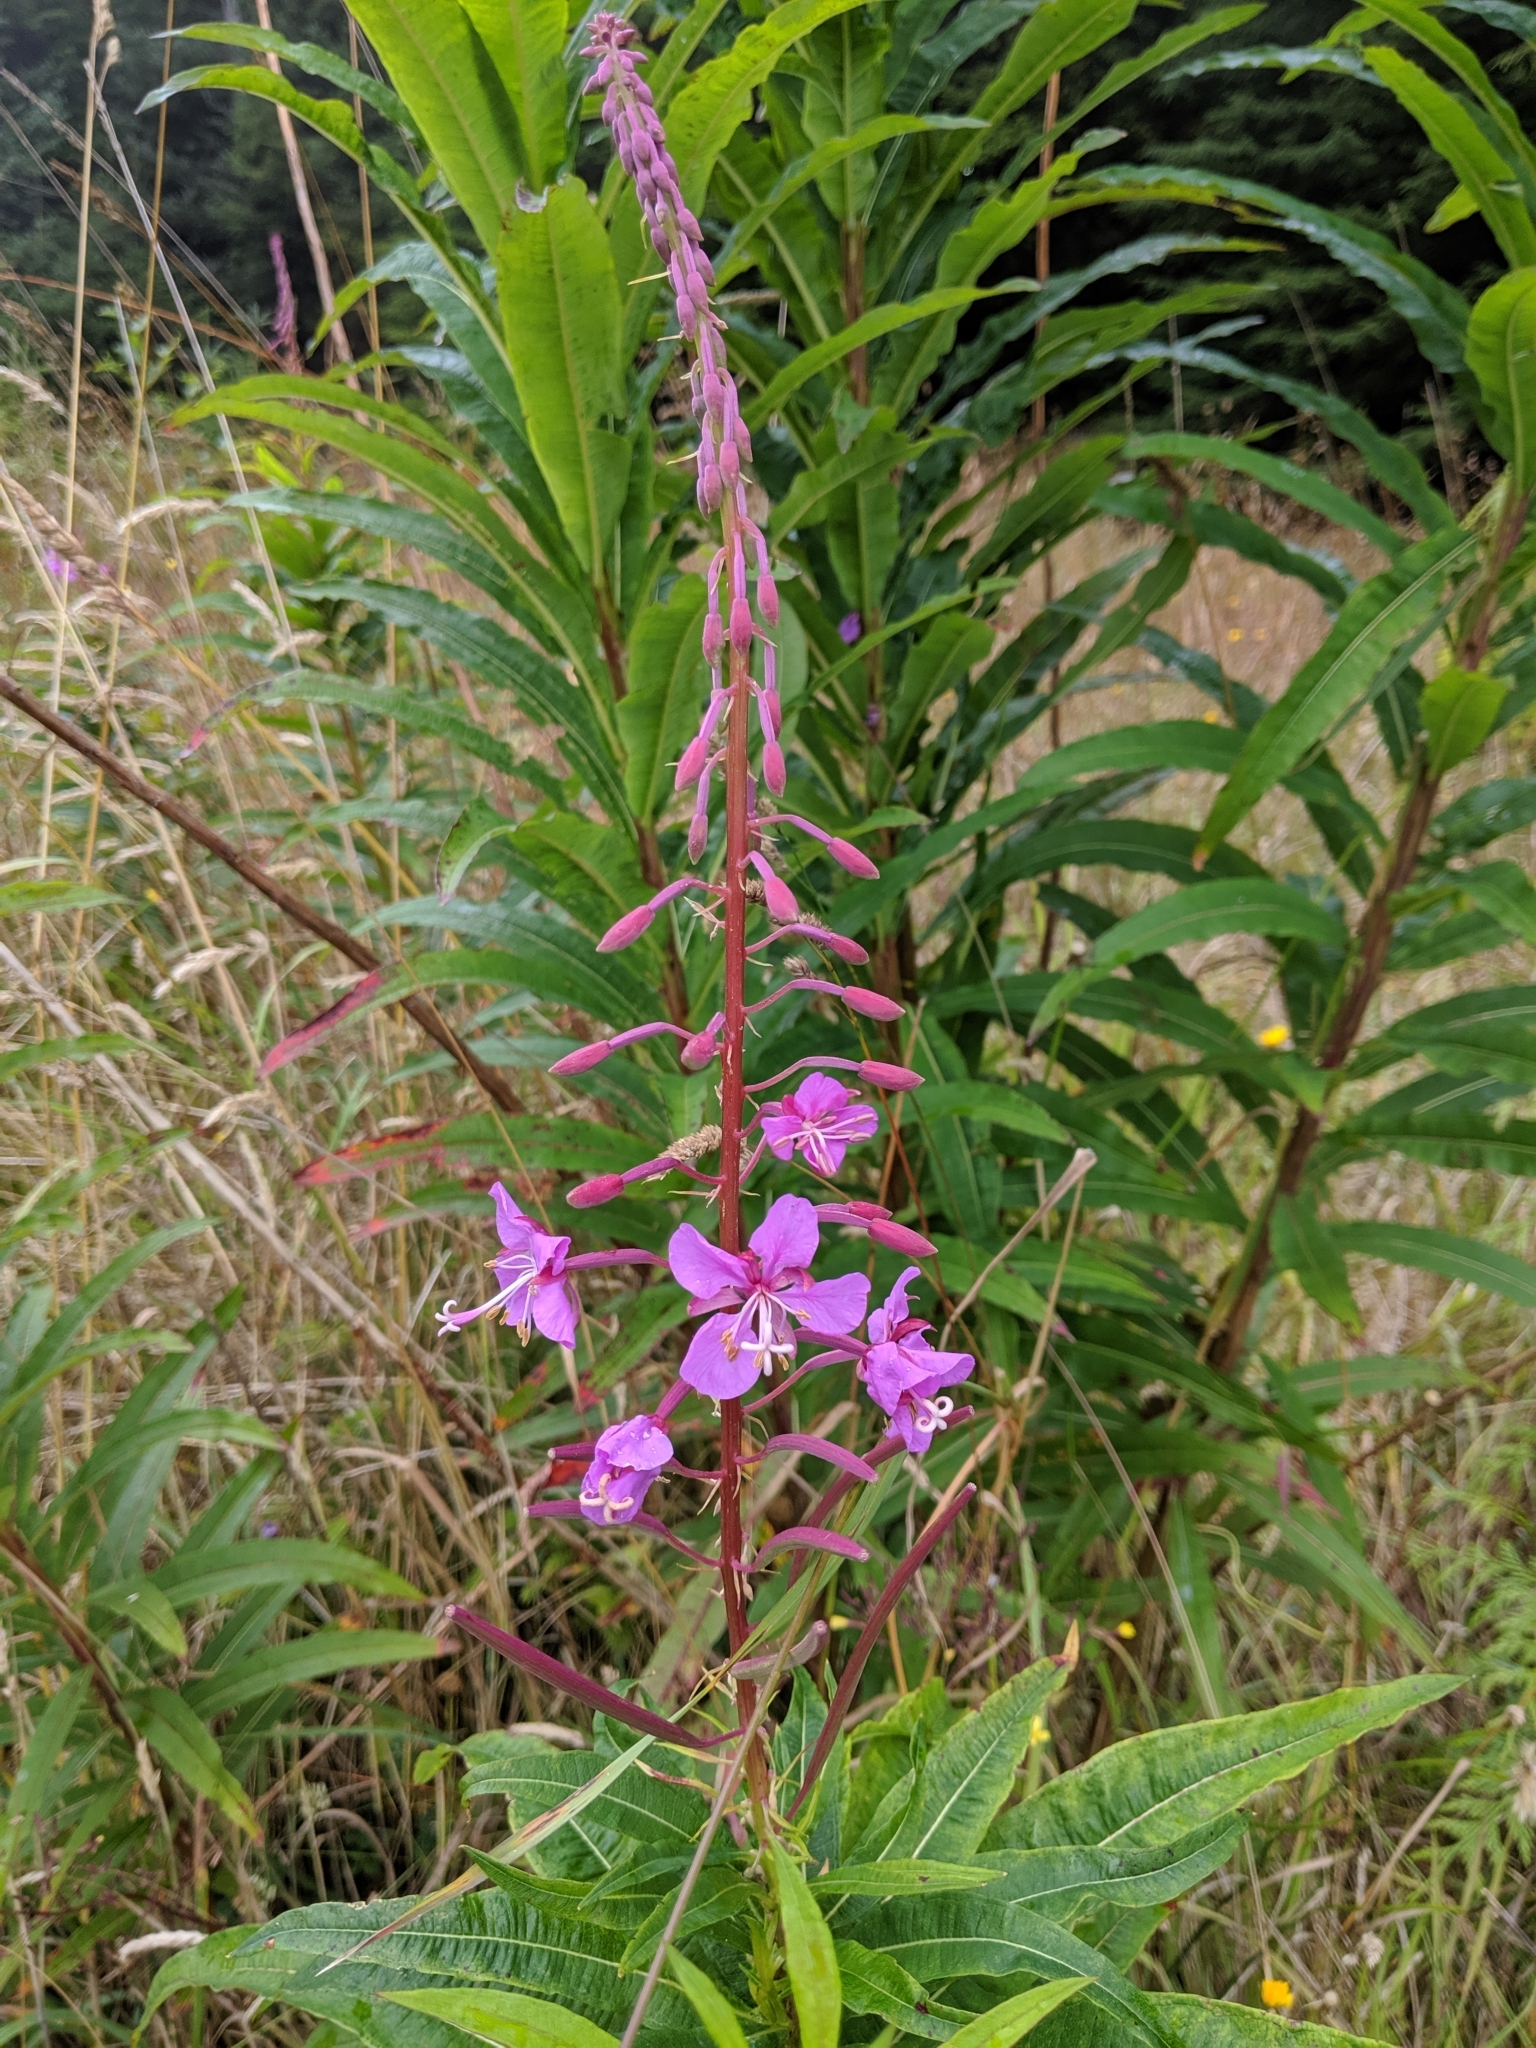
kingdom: Plantae
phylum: Tracheophyta
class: Magnoliopsida
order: Myrtales
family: Onagraceae
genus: Chamaenerion
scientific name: Chamaenerion angustifolium
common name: Fireweed
